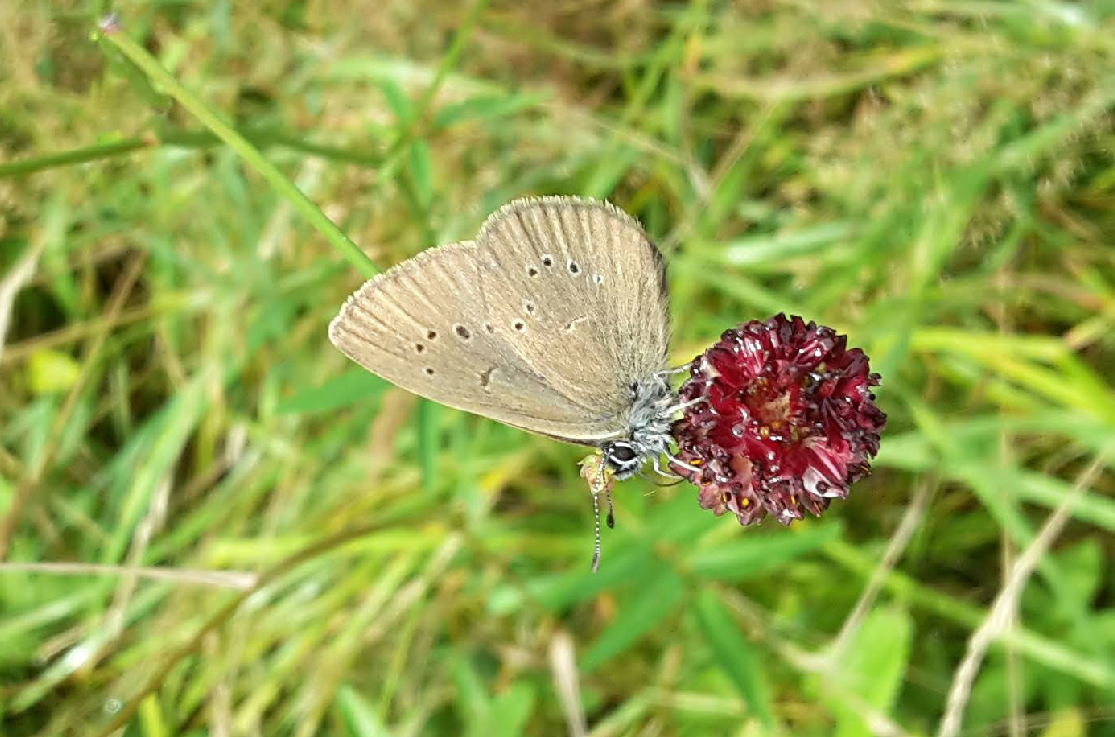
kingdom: Animalia
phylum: Arthropoda
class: Insecta
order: Lepidoptera
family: Lycaenidae
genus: Maculinea
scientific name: Maculinea nausithous
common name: Dusky large blue
